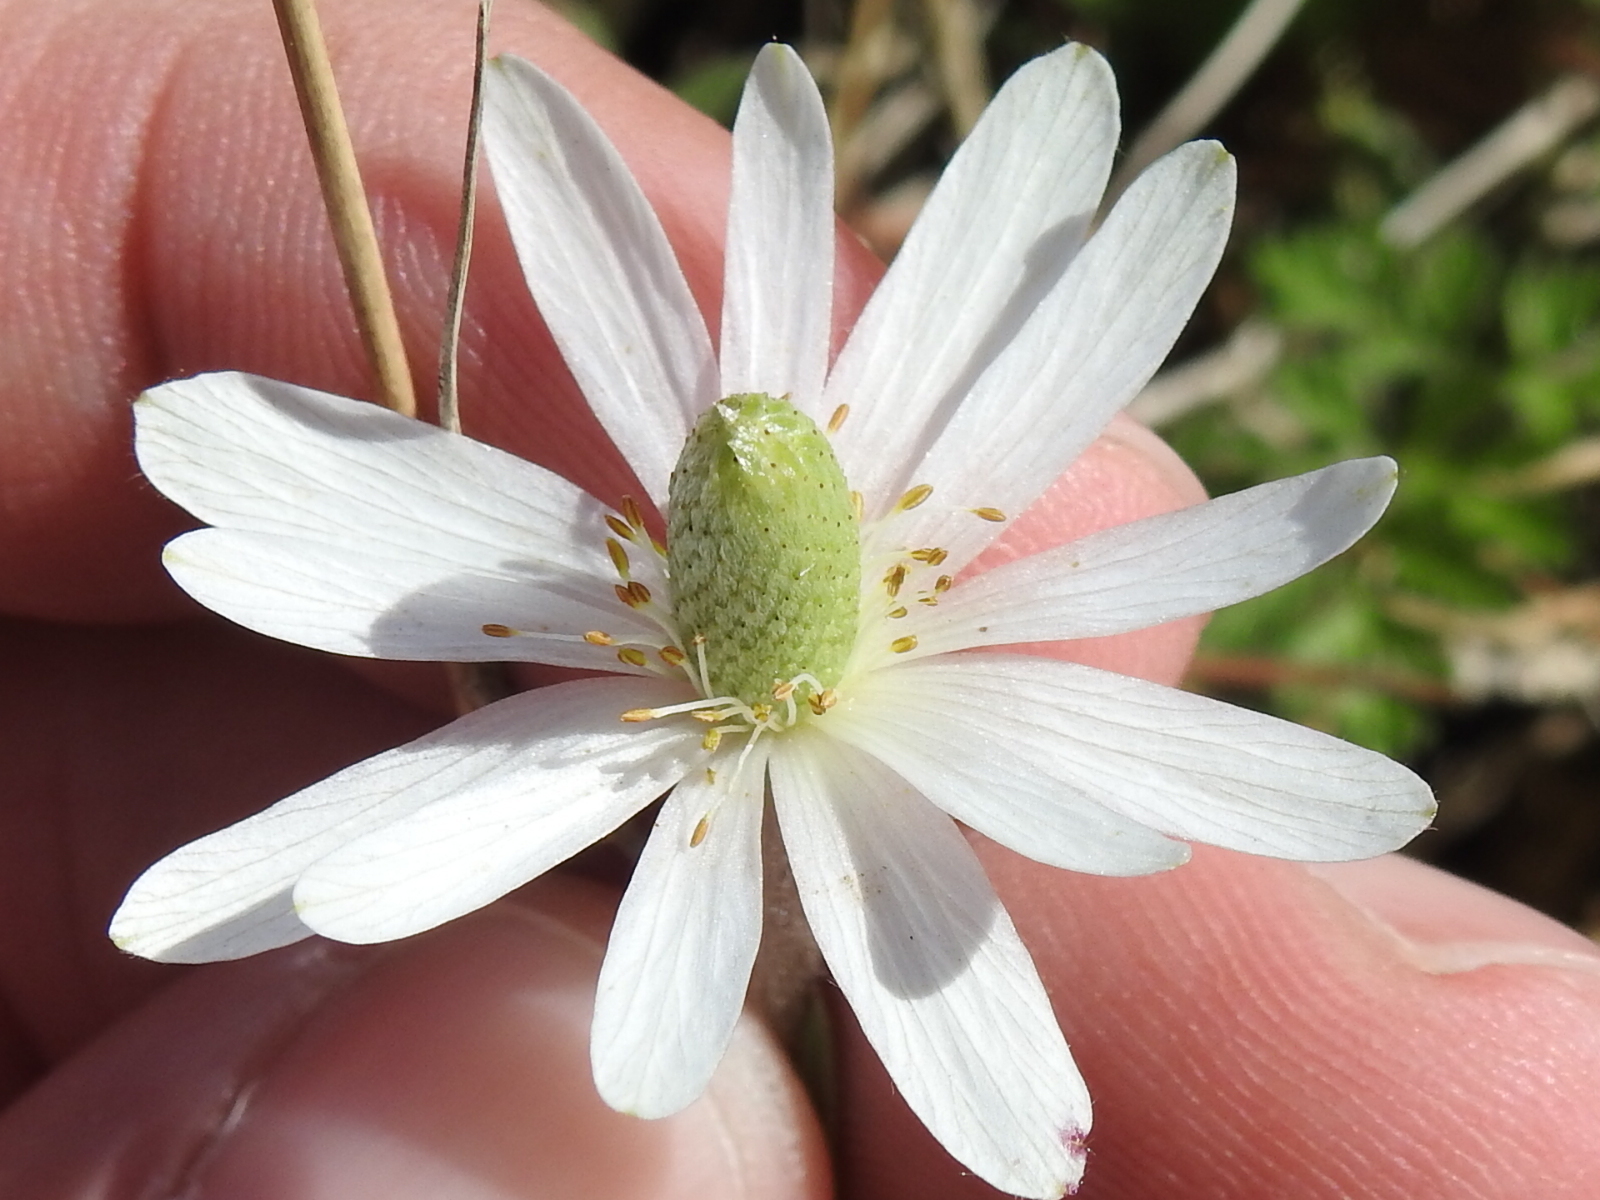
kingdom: Plantae
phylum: Tracheophyta
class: Magnoliopsida
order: Ranunculales
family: Ranunculaceae
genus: Anemone
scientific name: Anemone berlandieri
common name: Ten-petal anemone
